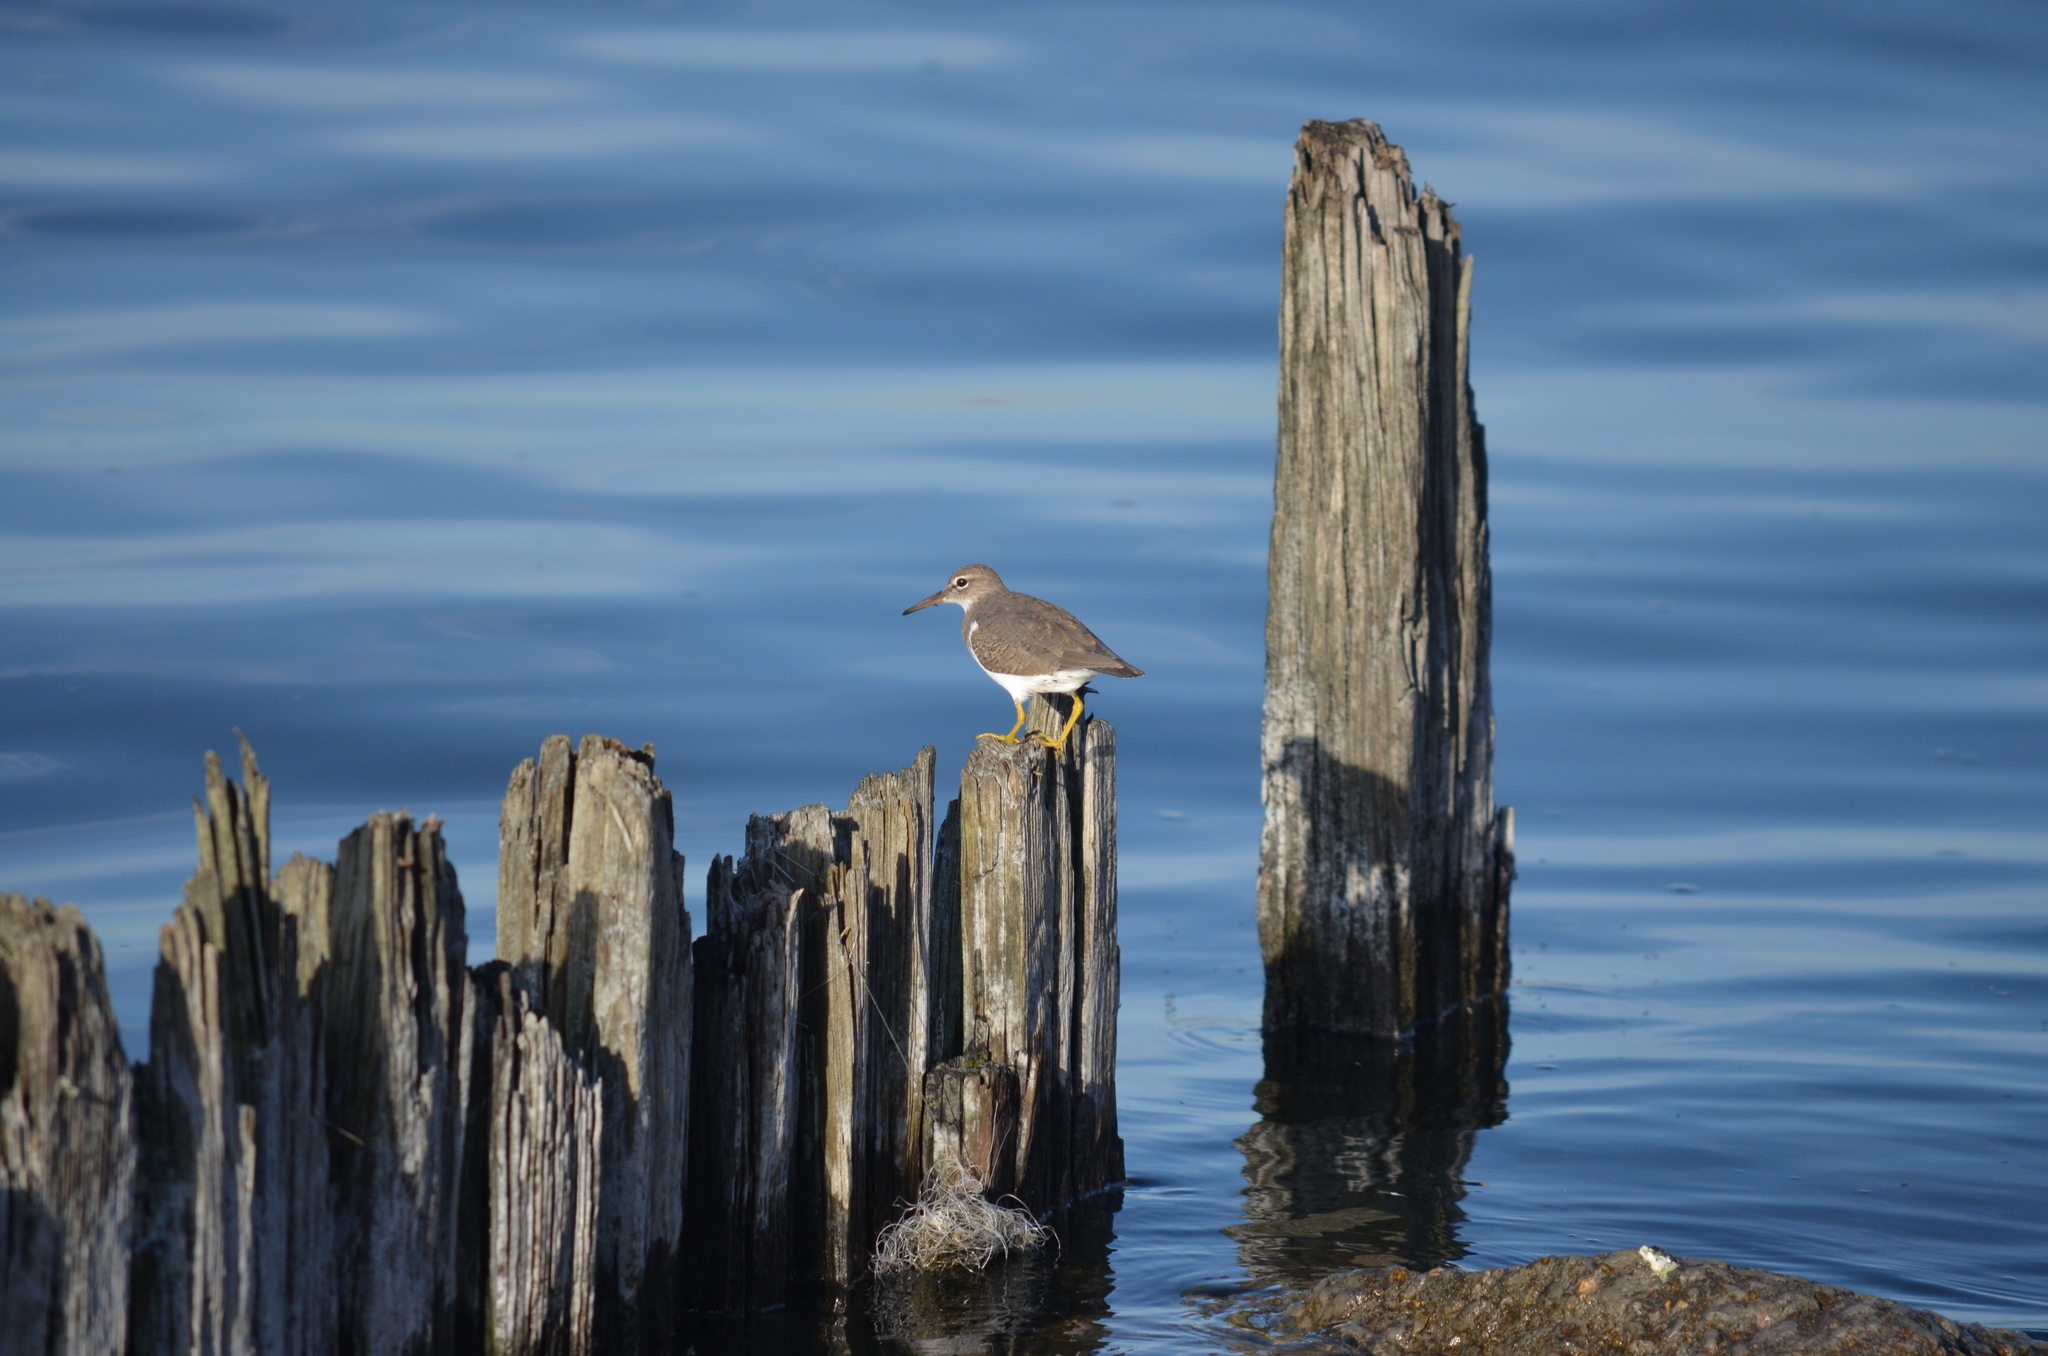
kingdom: Animalia
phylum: Chordata
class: Aves
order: Charadriiformes
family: Scolopacidae
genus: Actitis
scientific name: Actitis macularius
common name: Spotted sandpiper
